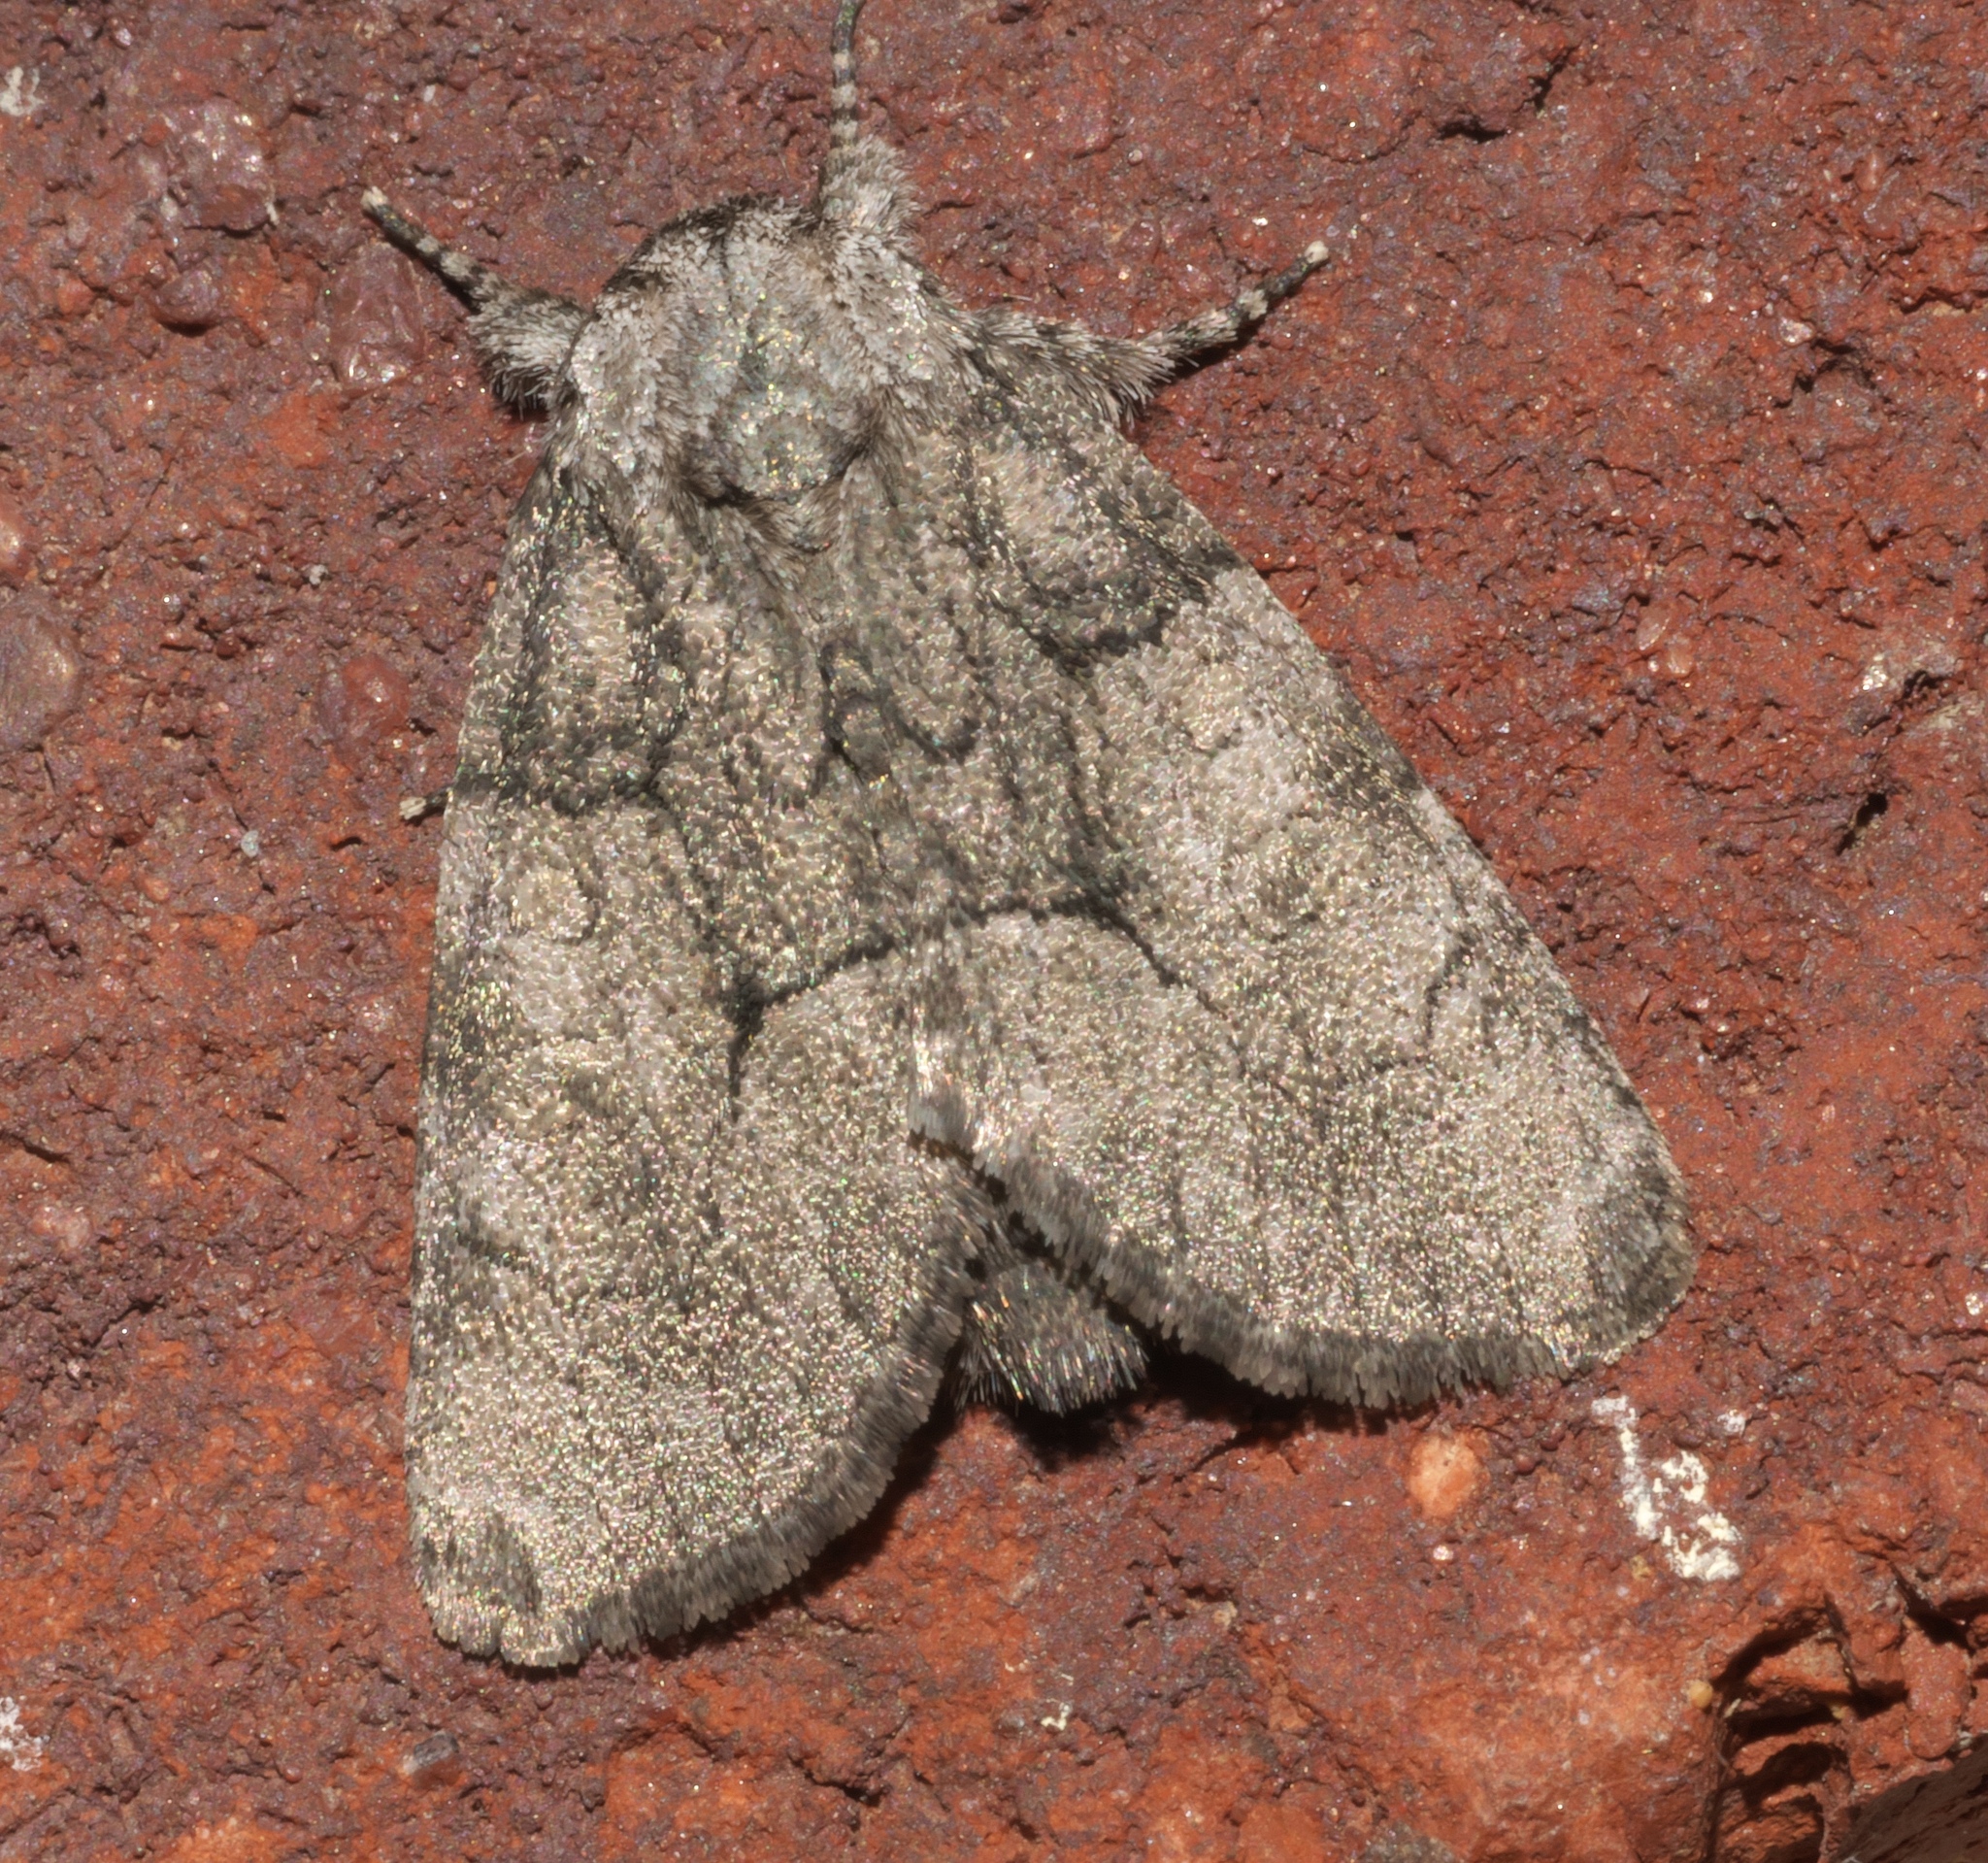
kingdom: Animalia
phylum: Arthropoda
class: Insecta
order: Lepidoptera
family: Noctuidae
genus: Raphia
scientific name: Raphia frater
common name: Brother
